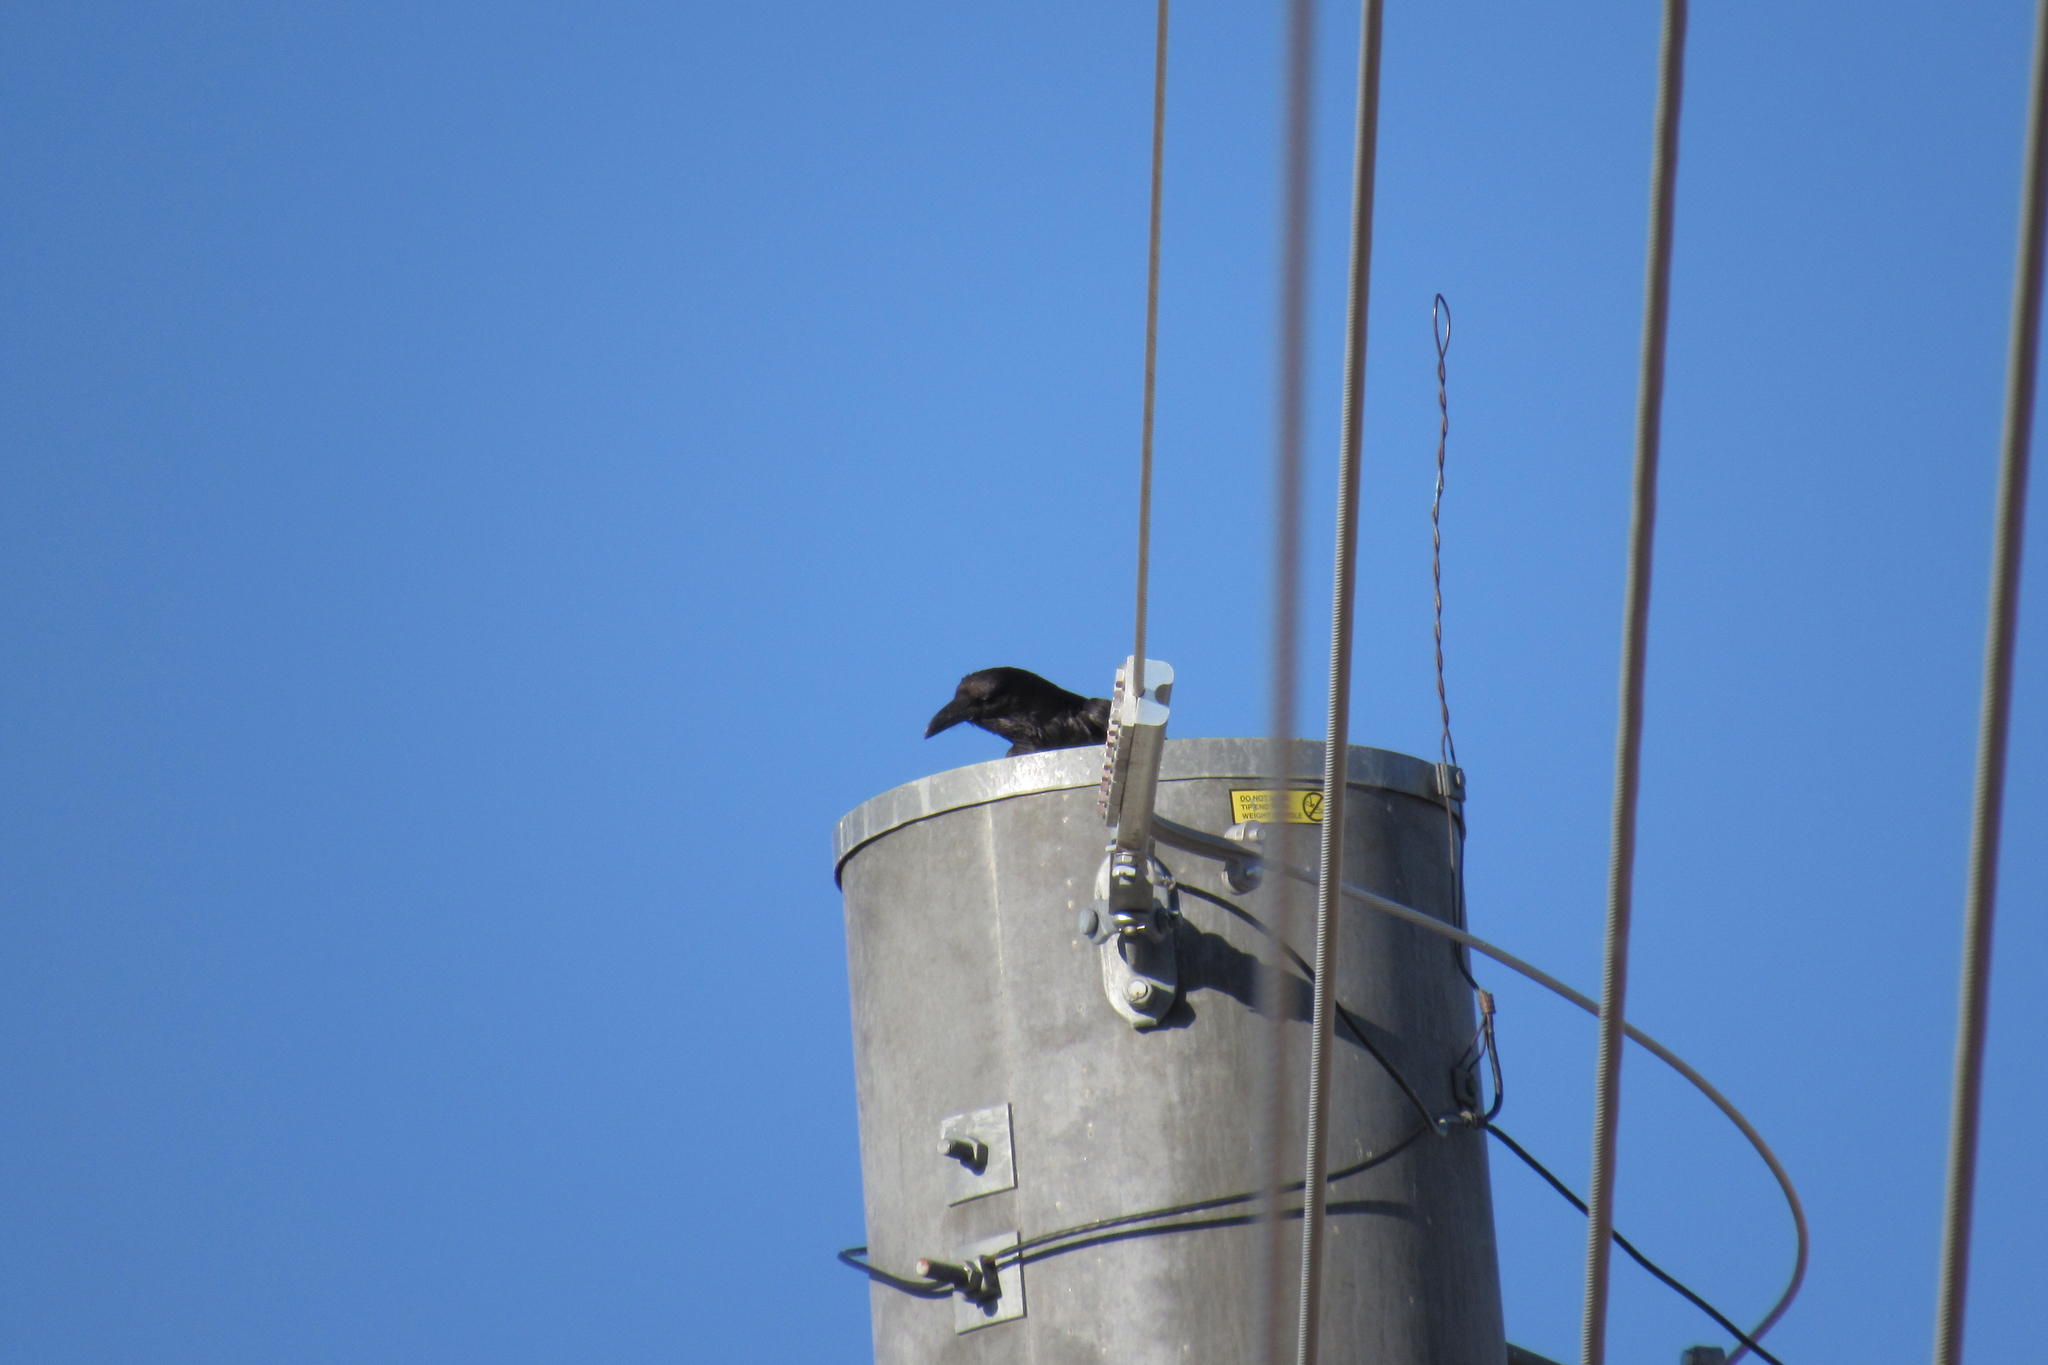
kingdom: Animalia
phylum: Chordata
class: Aves
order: Passeriformes
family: Corvidae
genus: Corvus
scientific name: Corvus
